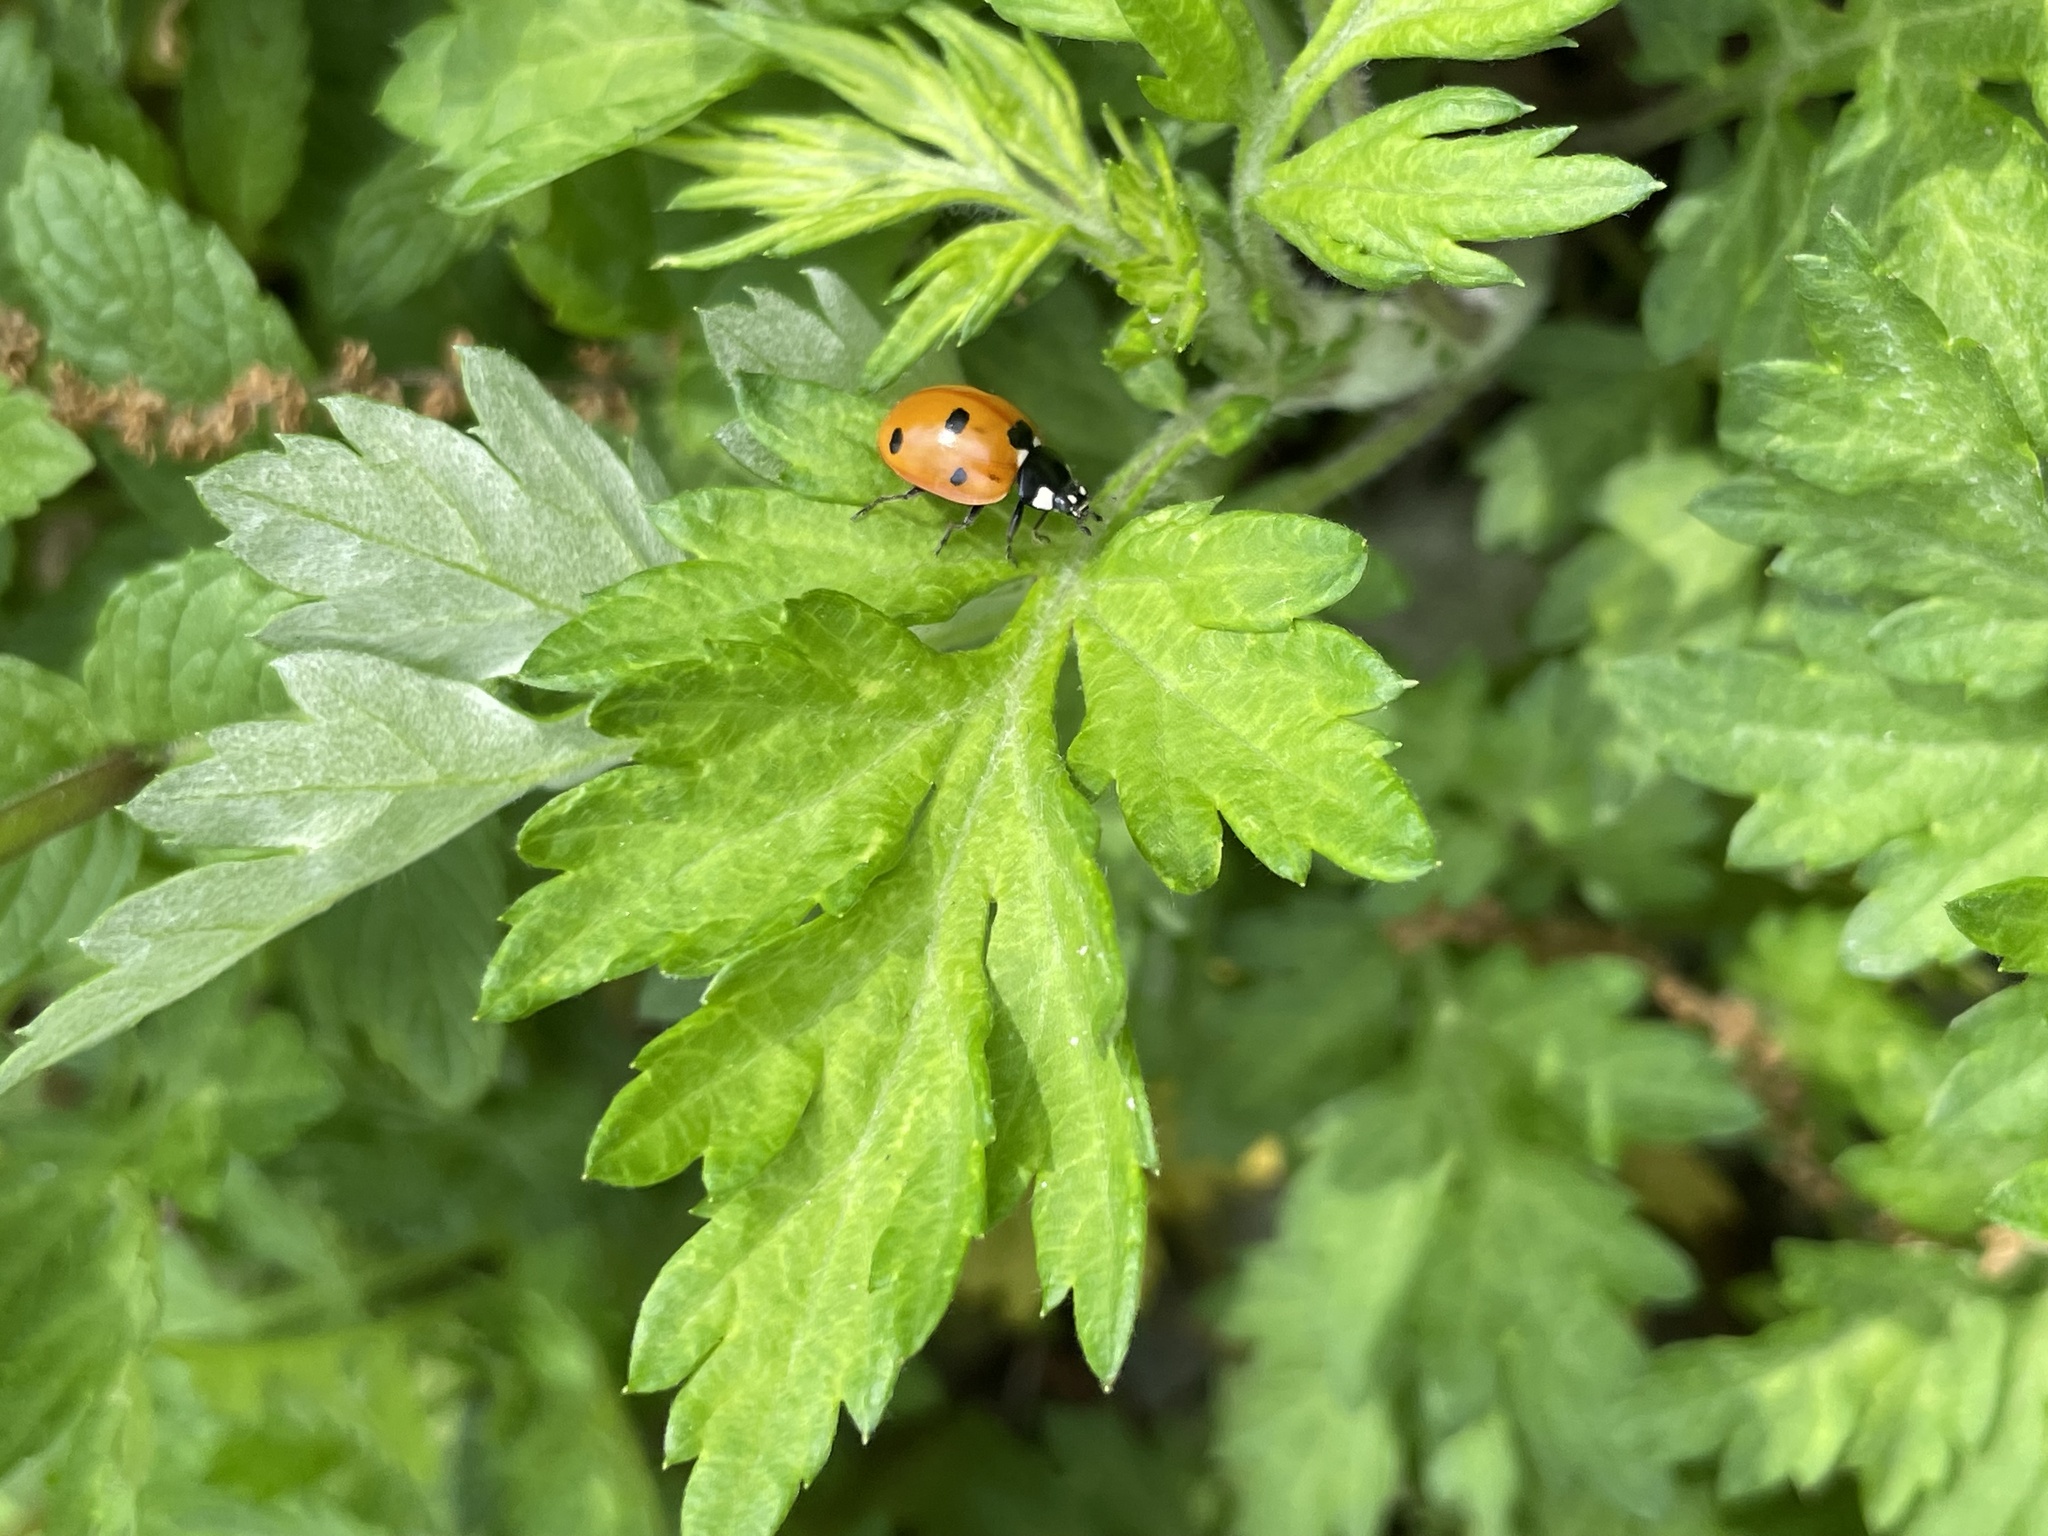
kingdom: Animalia
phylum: Arthropoda
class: Insecta
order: Coleoptera
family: Coccinellidae
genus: Coccinella
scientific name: Coccinella septempunctata
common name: Sevenspotted lady beetle
